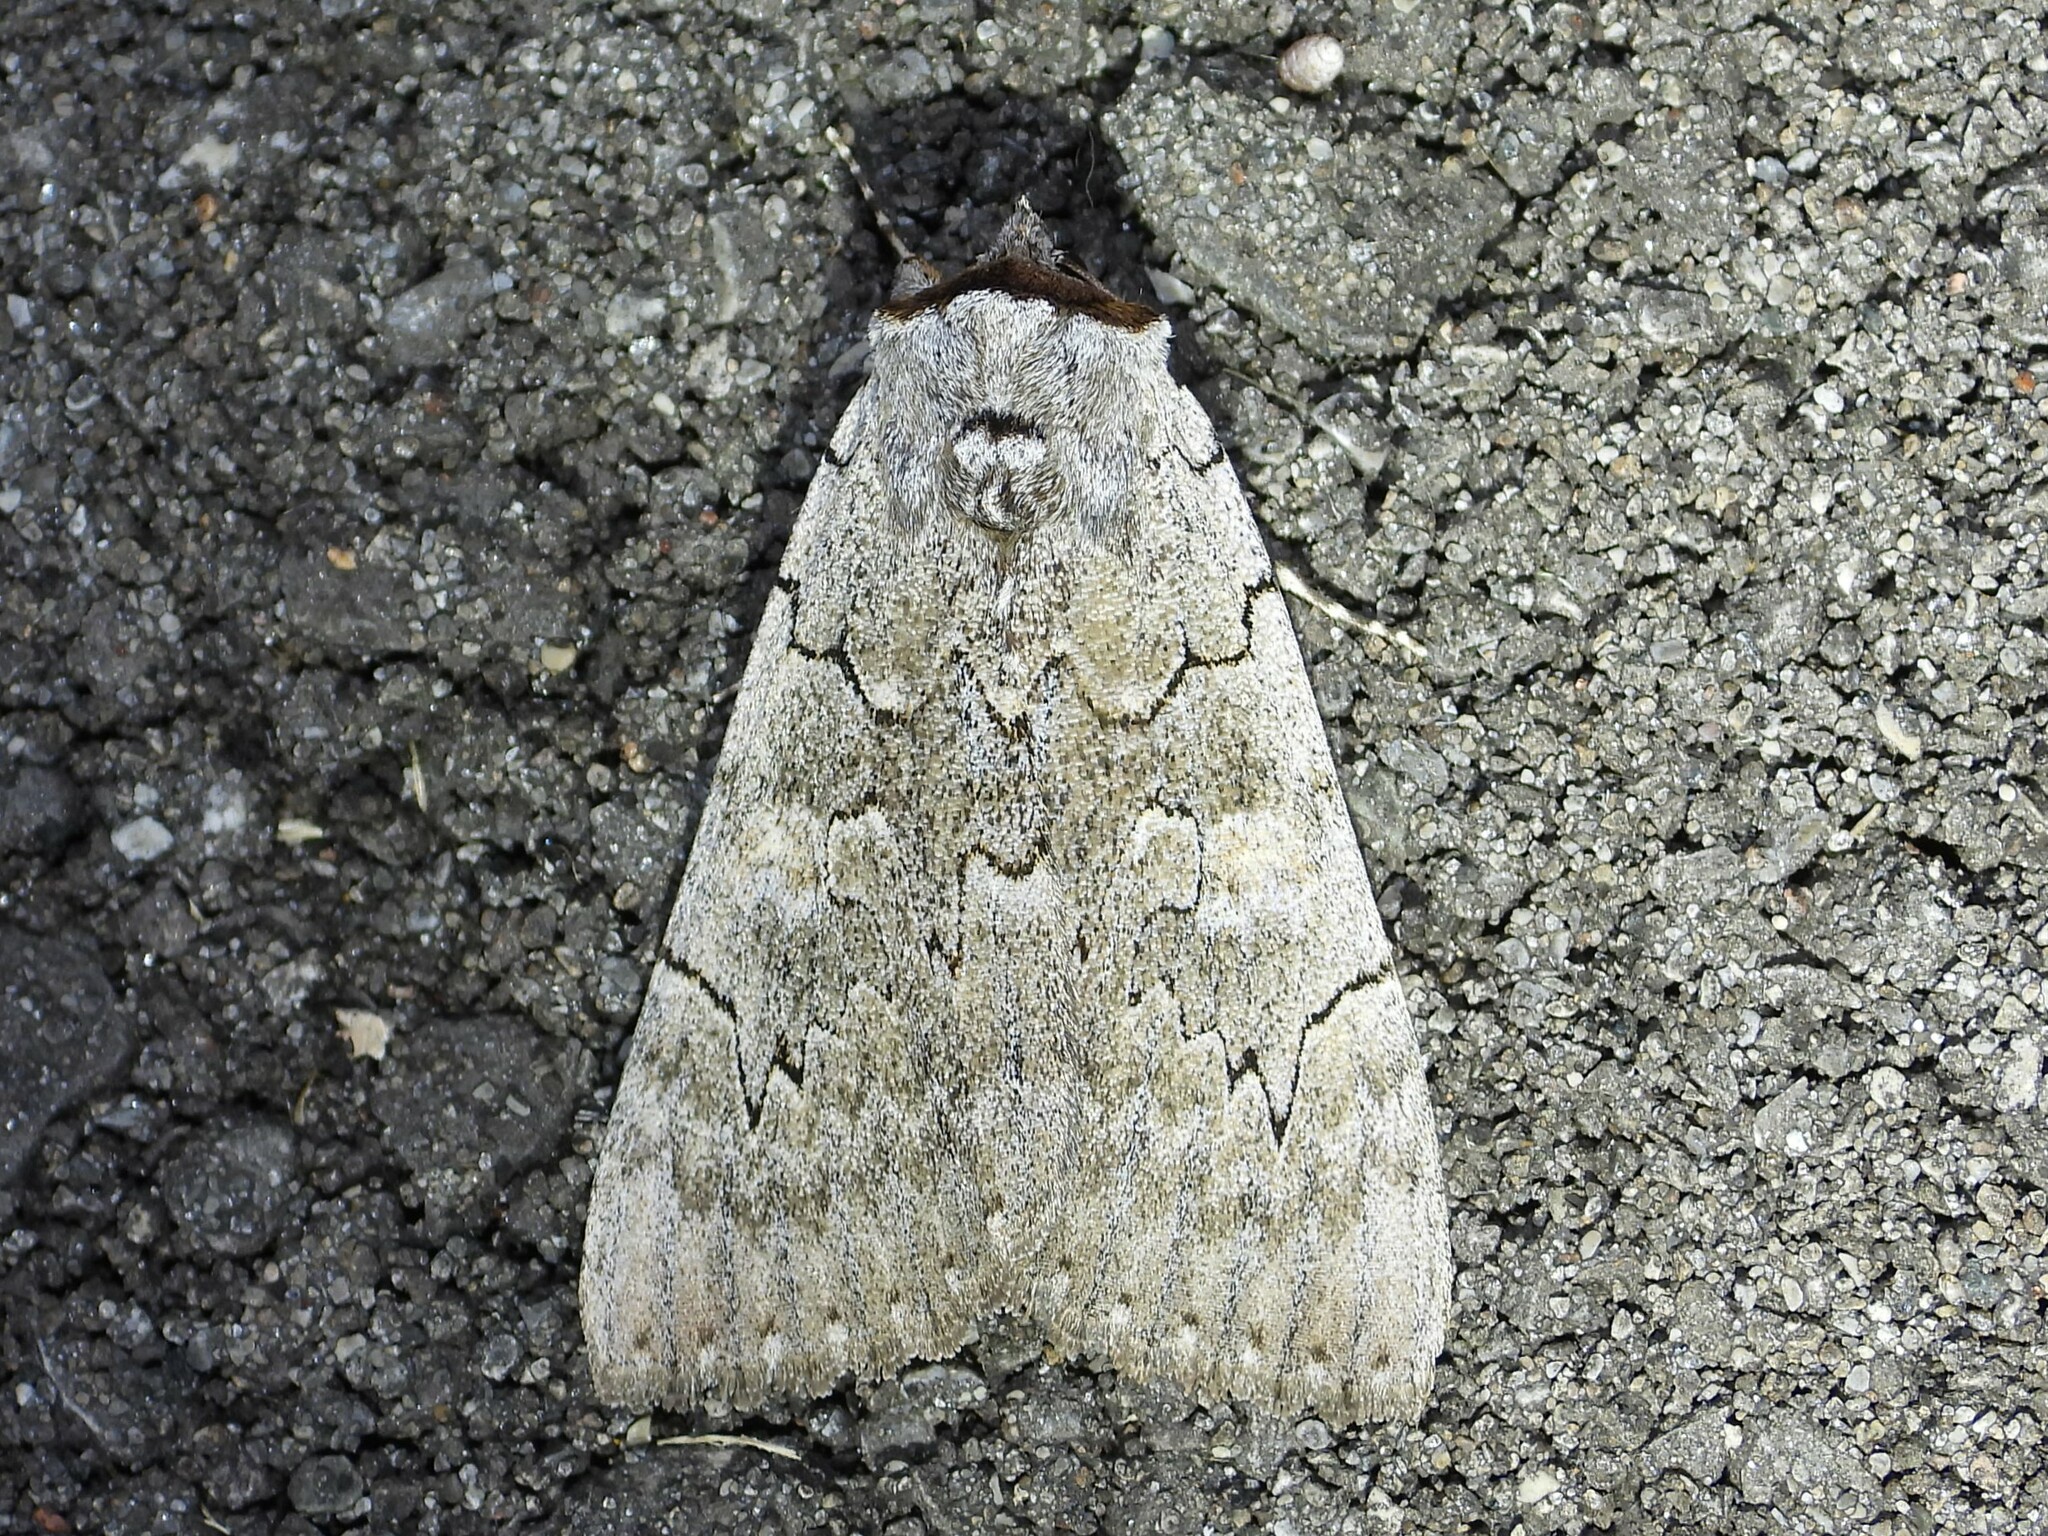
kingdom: Animalia
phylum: Arthropoda
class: Insecta
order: Lepidoptera
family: Erebidae
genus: Catocala
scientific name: Catocala concumbens
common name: Pink underwing
